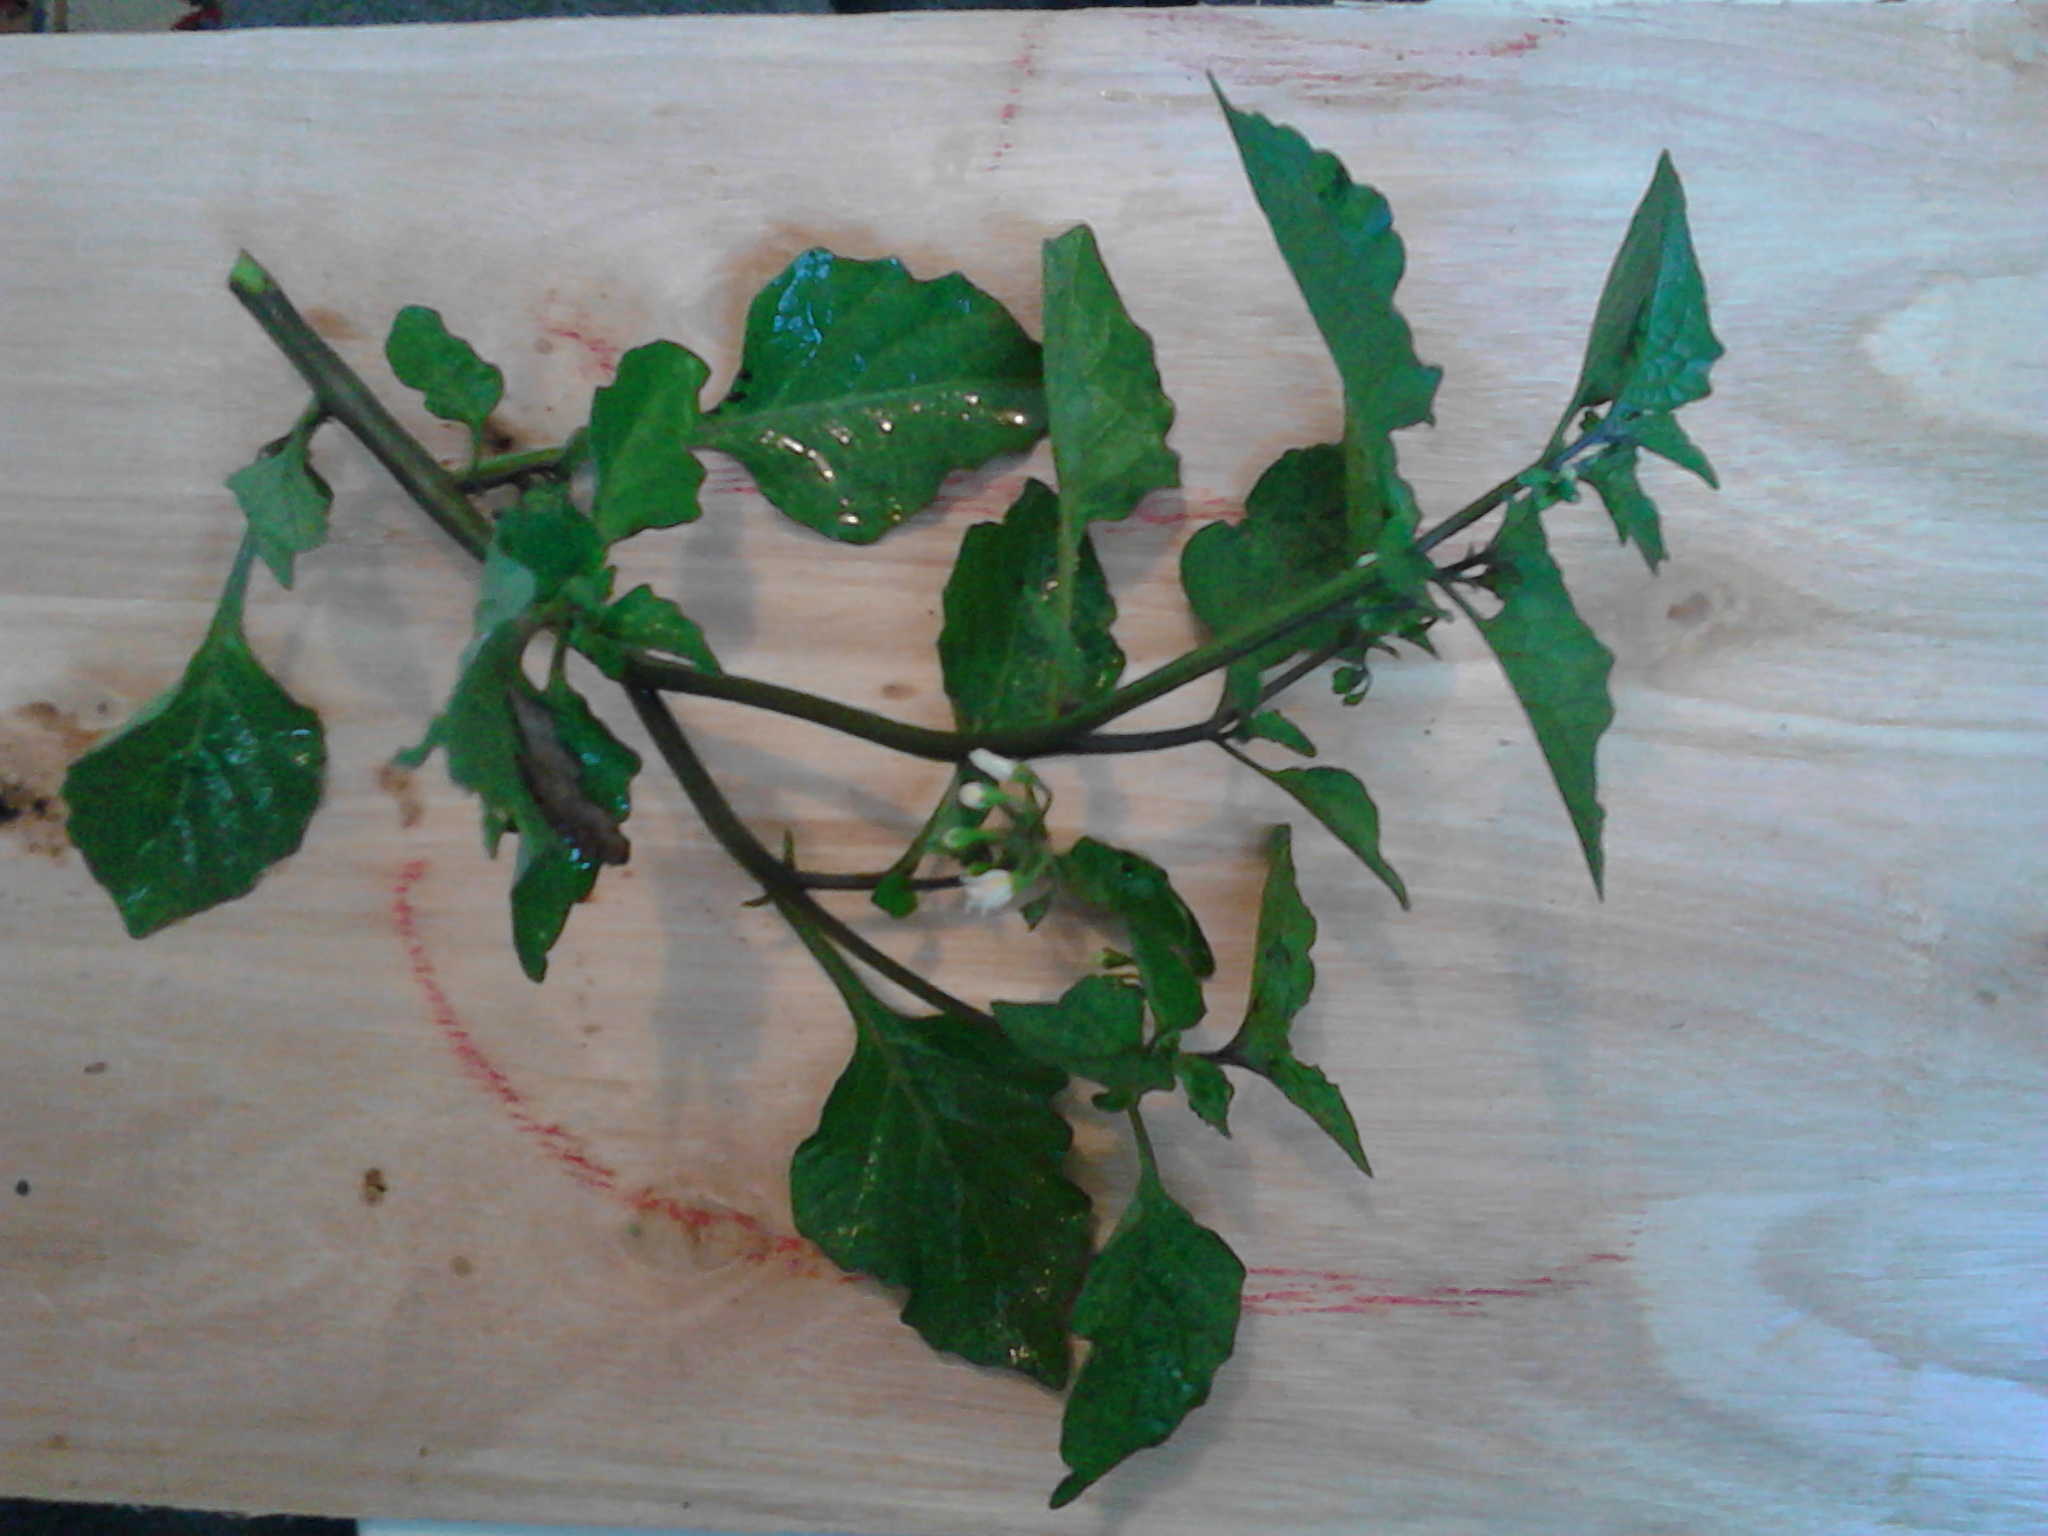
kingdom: Plantae
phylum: Tracheophyta
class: Magnoliopsida
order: Solanales
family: Solanaceae
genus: Solanum
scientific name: Solanum nigrum
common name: Black nightshade
